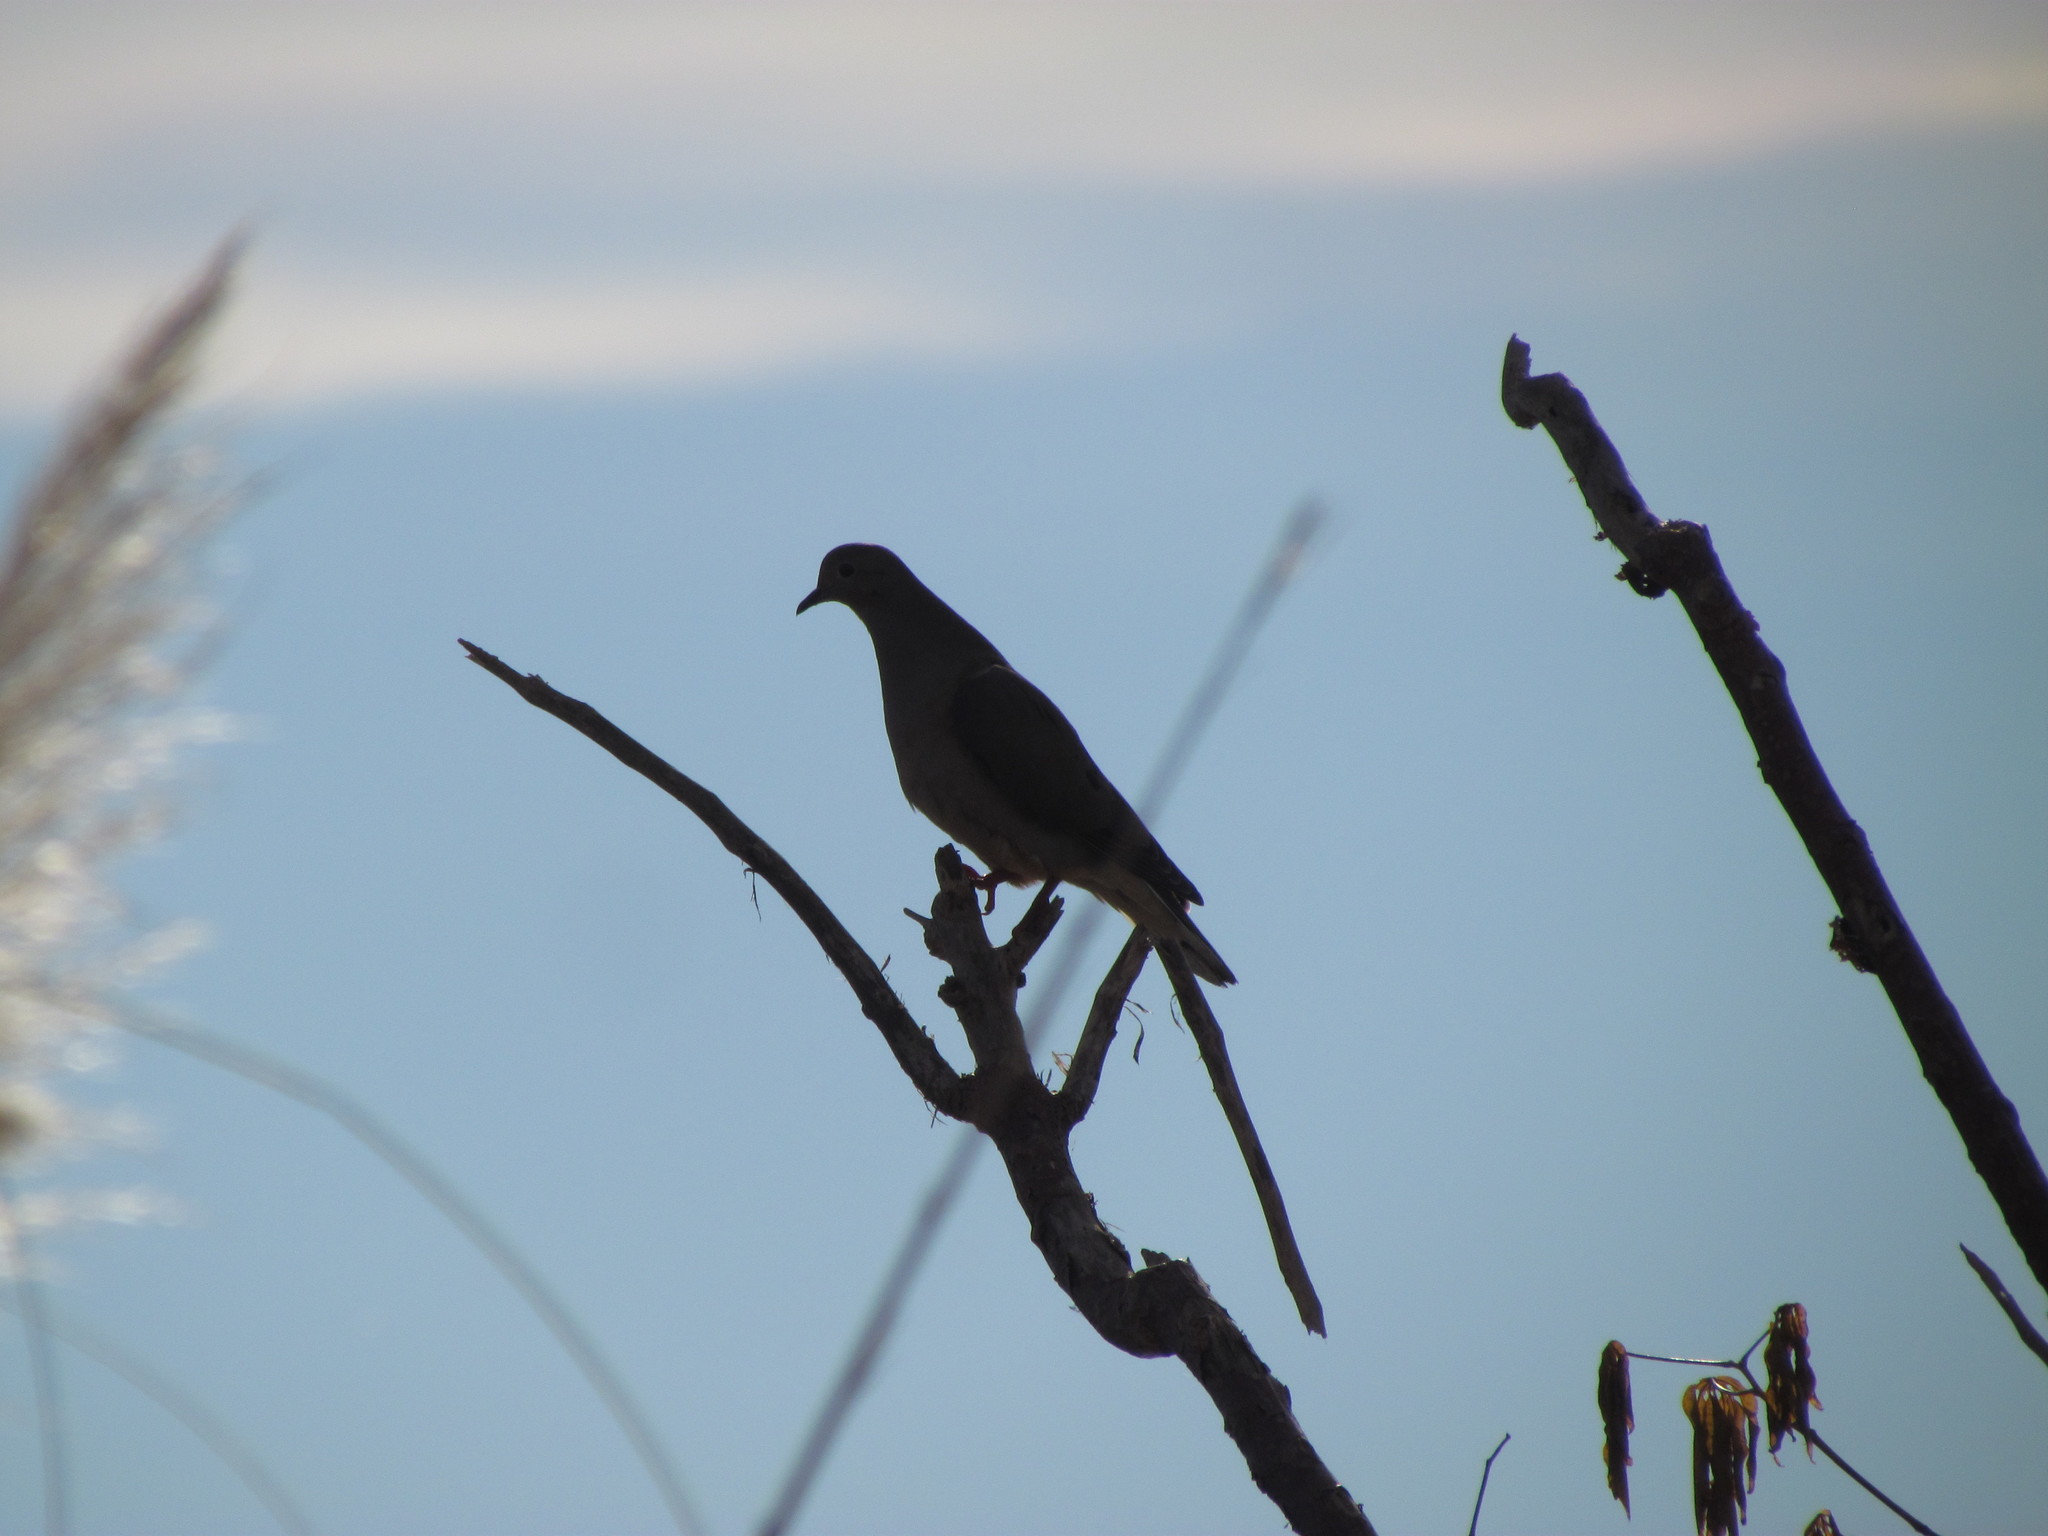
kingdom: Animalia
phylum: Chordata
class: Aves
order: Columbiformes
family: Columbidae
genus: Zenaida
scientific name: Zenaida auriculata
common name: Eared dove
